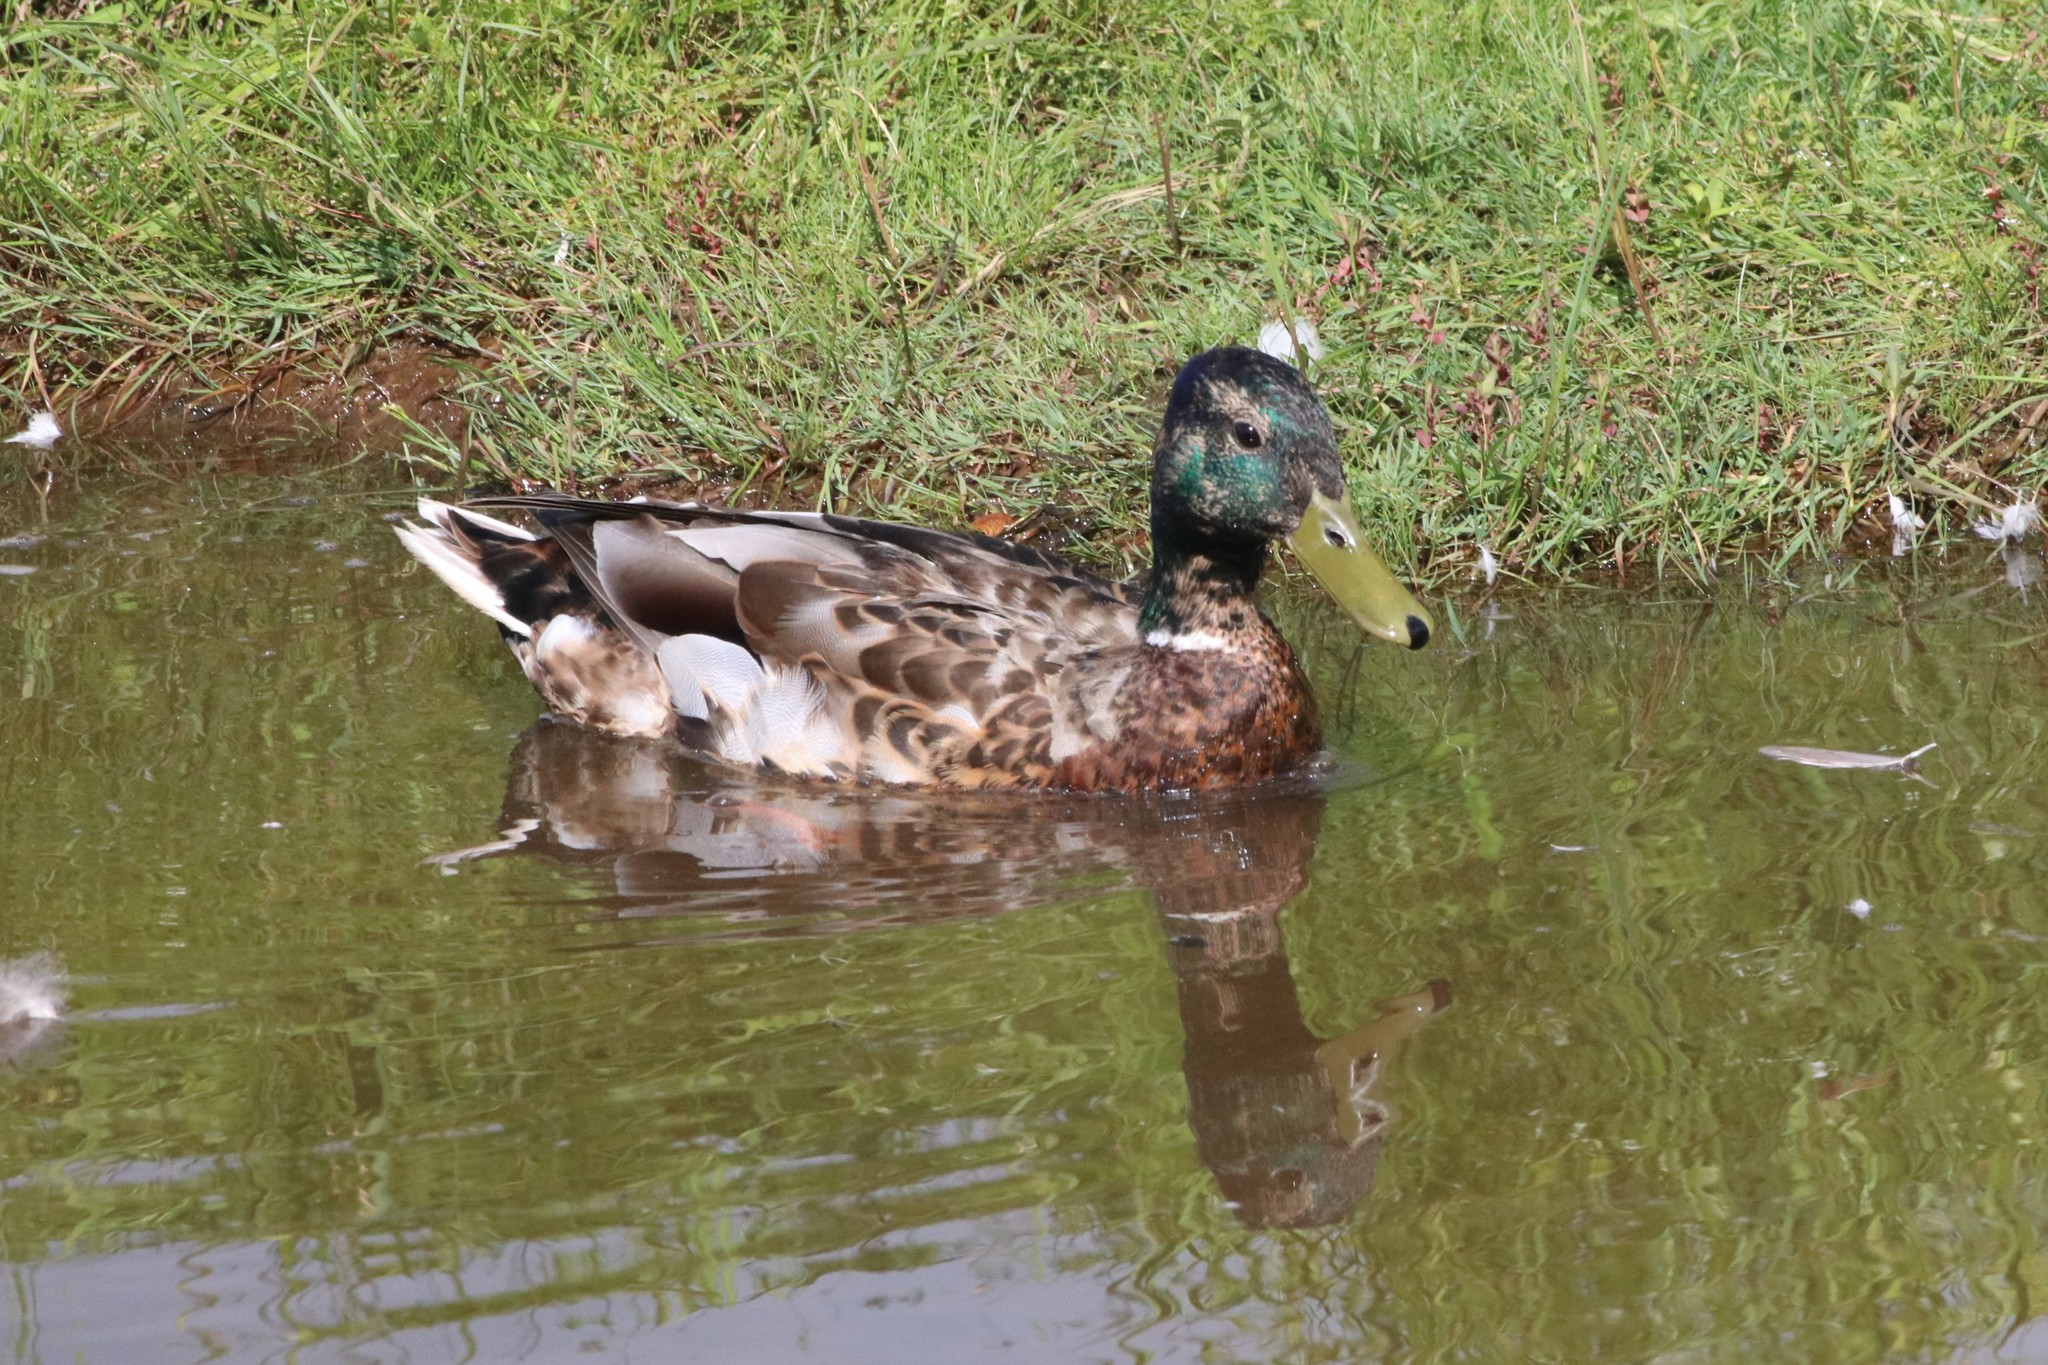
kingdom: Animalia
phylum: Chordata
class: Aves
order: Anseriformes
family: Anatidae
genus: Anas
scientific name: Anas platyrhynchos
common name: Mallard
